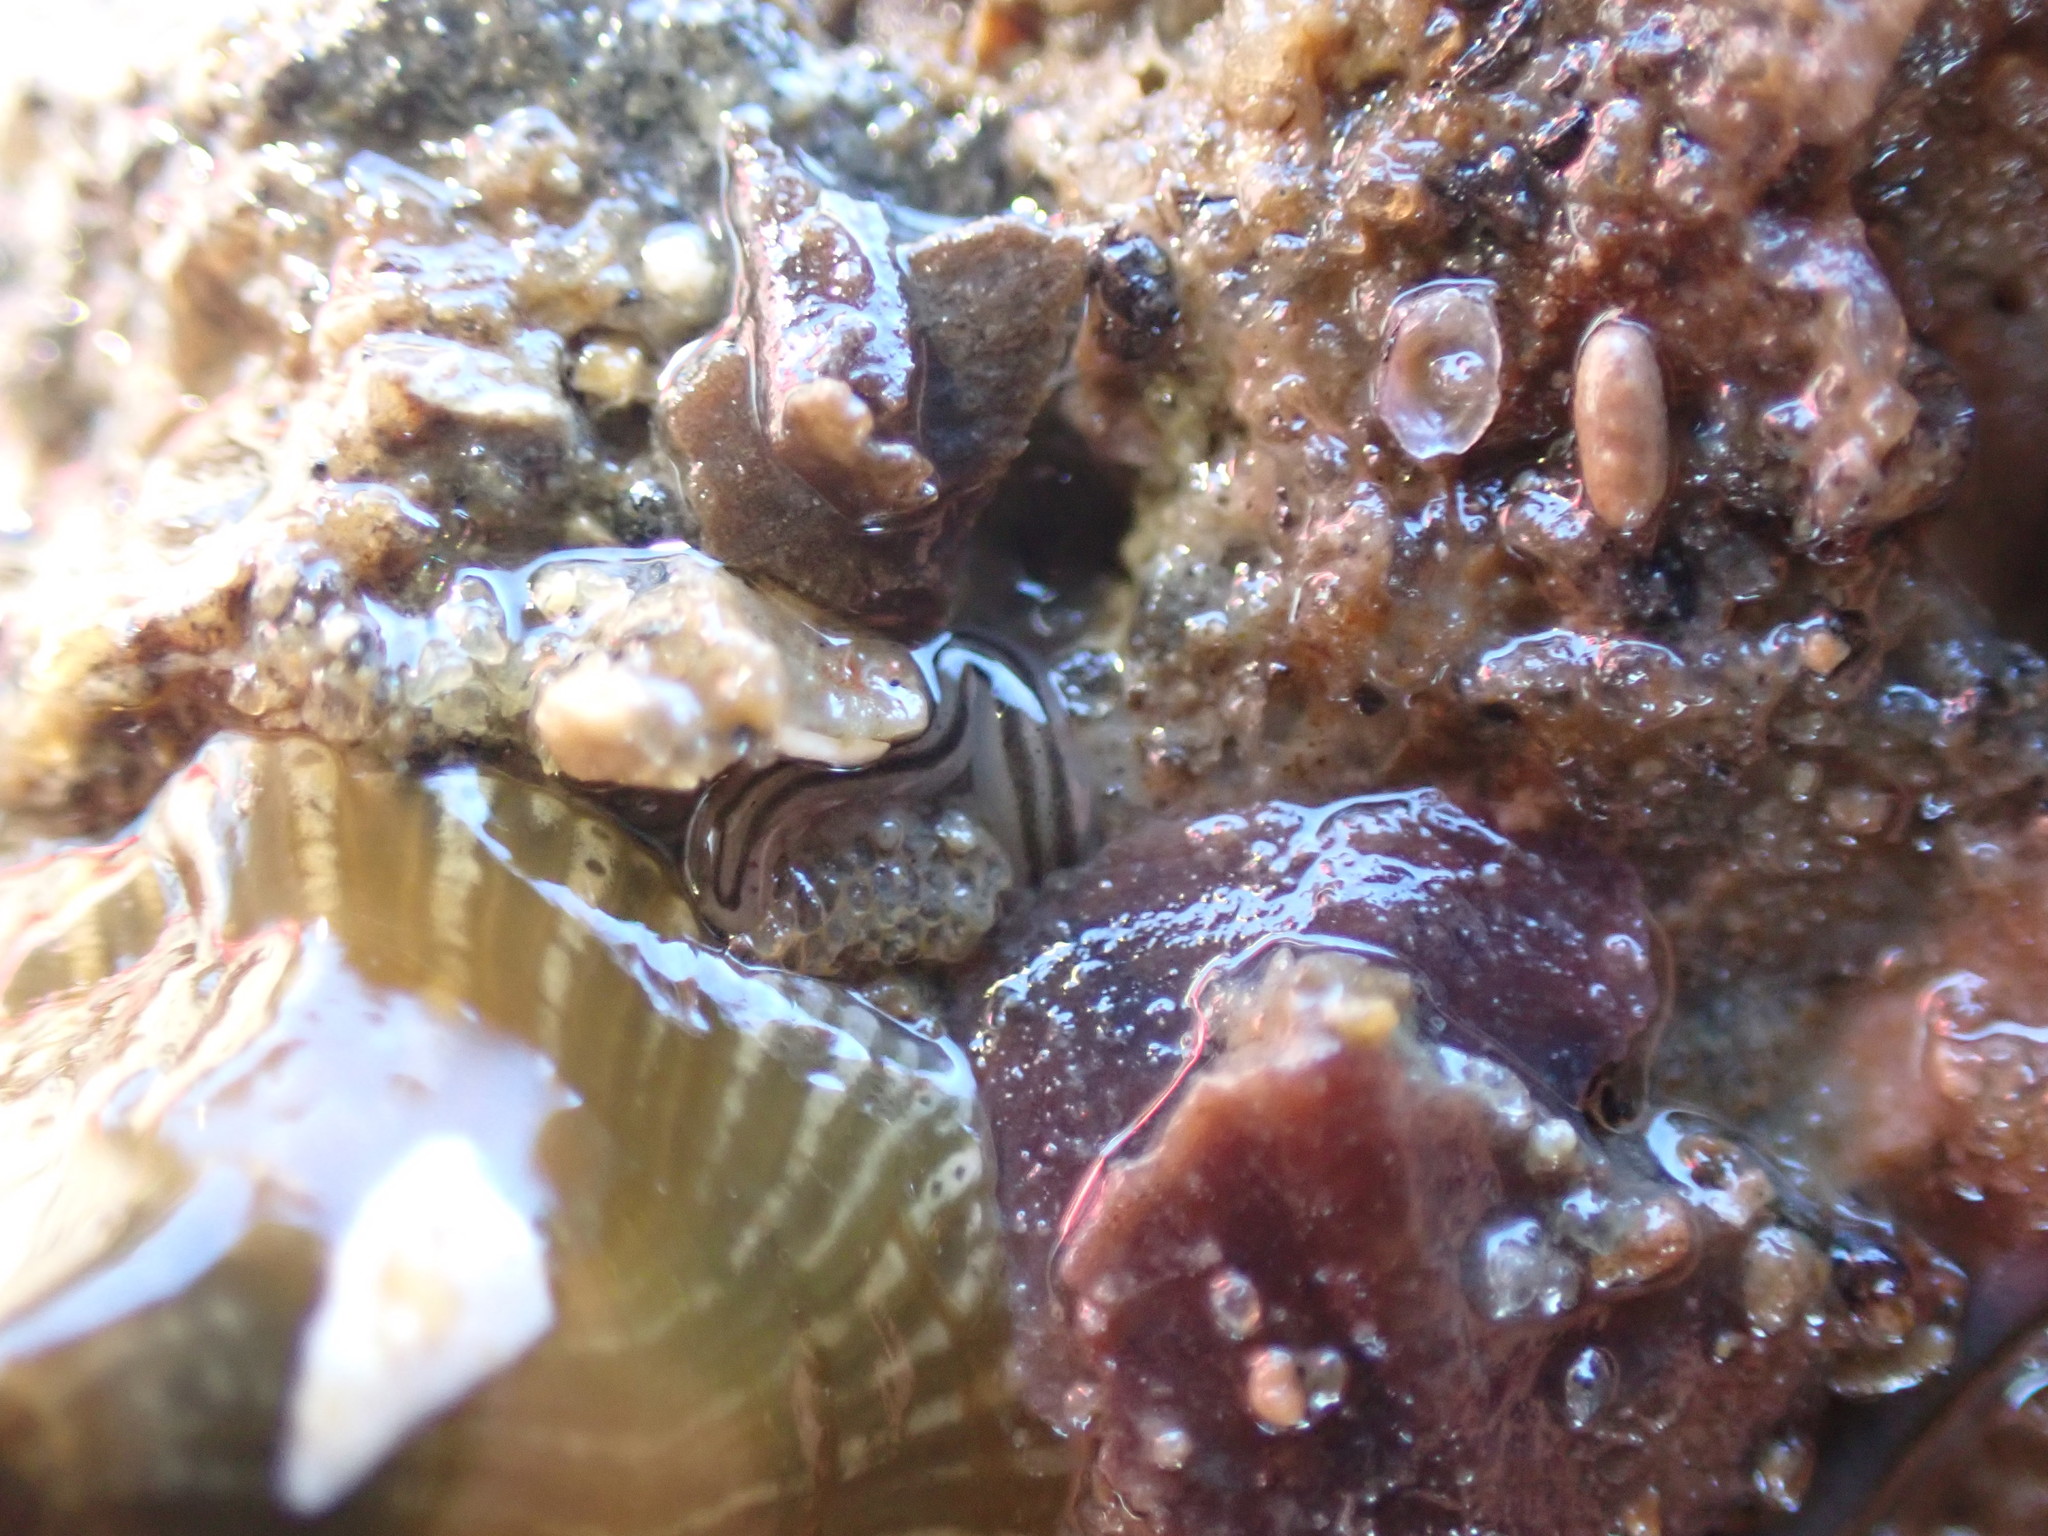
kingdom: Animalia
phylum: Nemertea
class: Hoplonemertea
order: Monostilifera
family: Emplectonematidae
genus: Nemertopsis
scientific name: Nemertopsis bivittata
